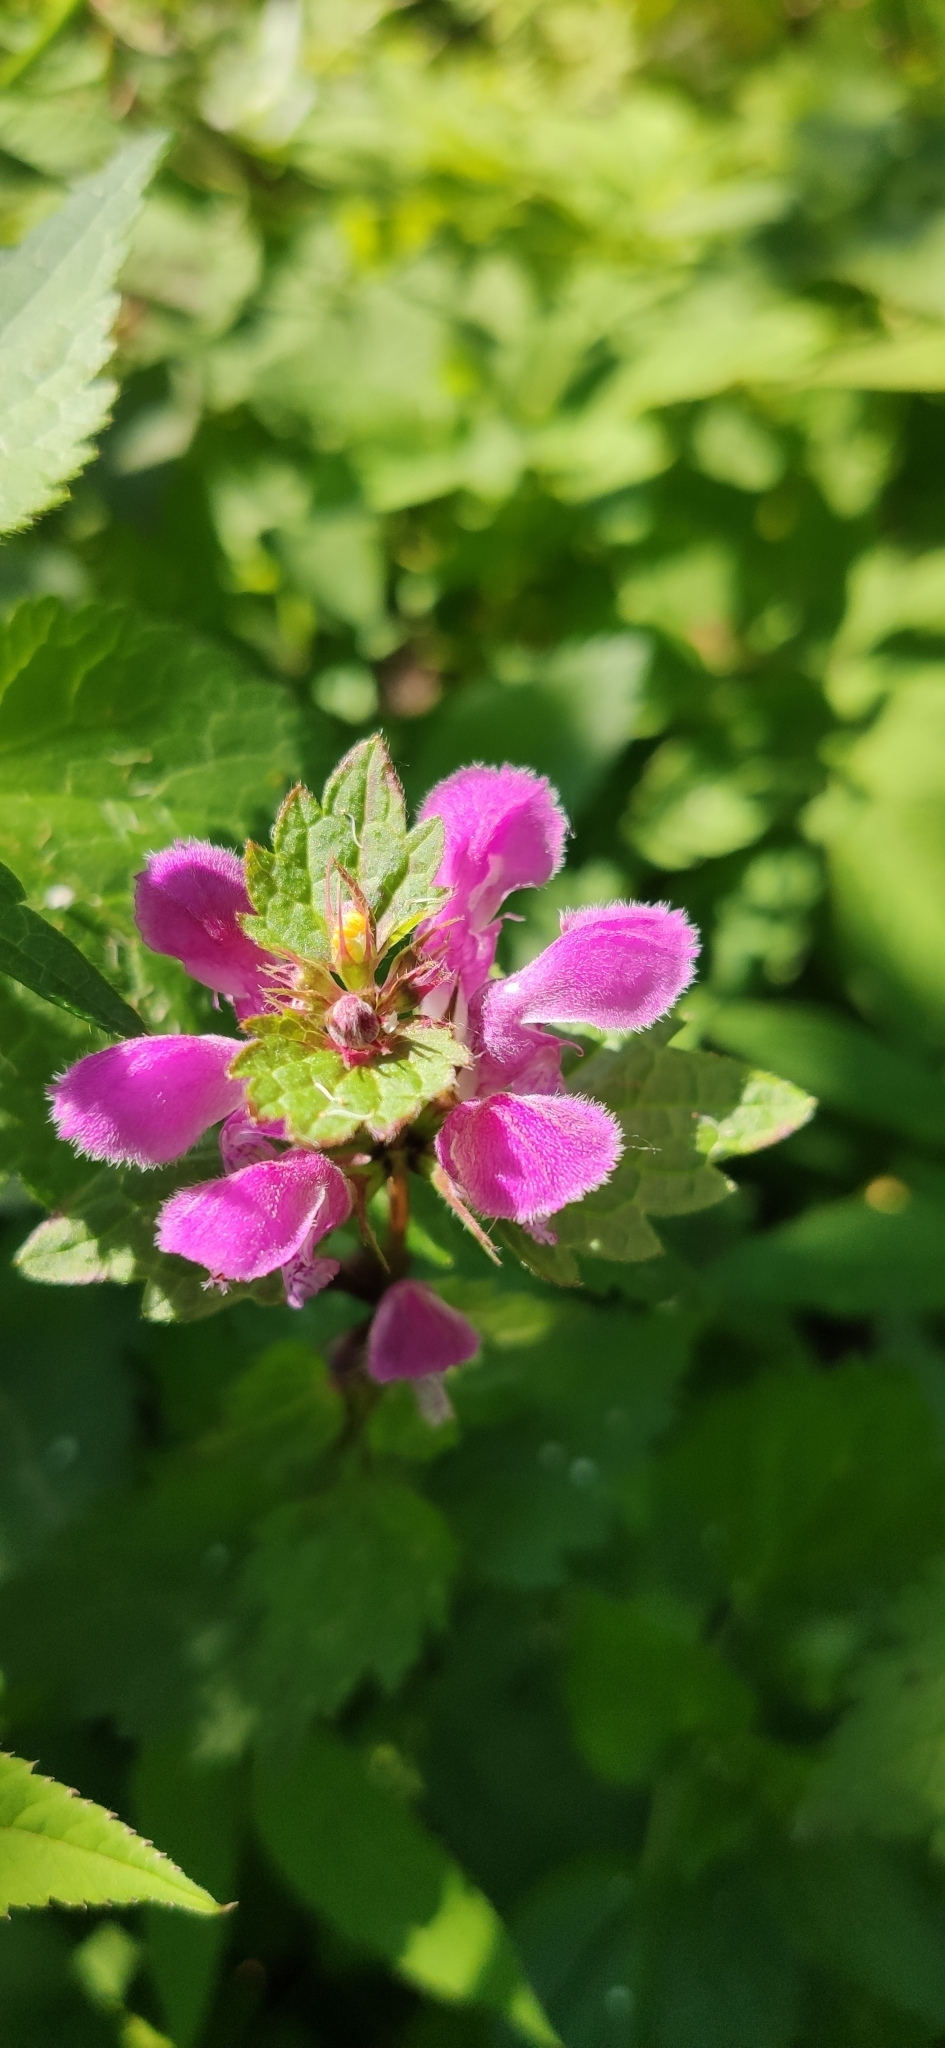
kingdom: Plantae
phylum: Tracheophyta
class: Magnoliopsida
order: Lamiales
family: Lamiaceae
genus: Lamium
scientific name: Lamium maculatum
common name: Spotted dead-nettle
